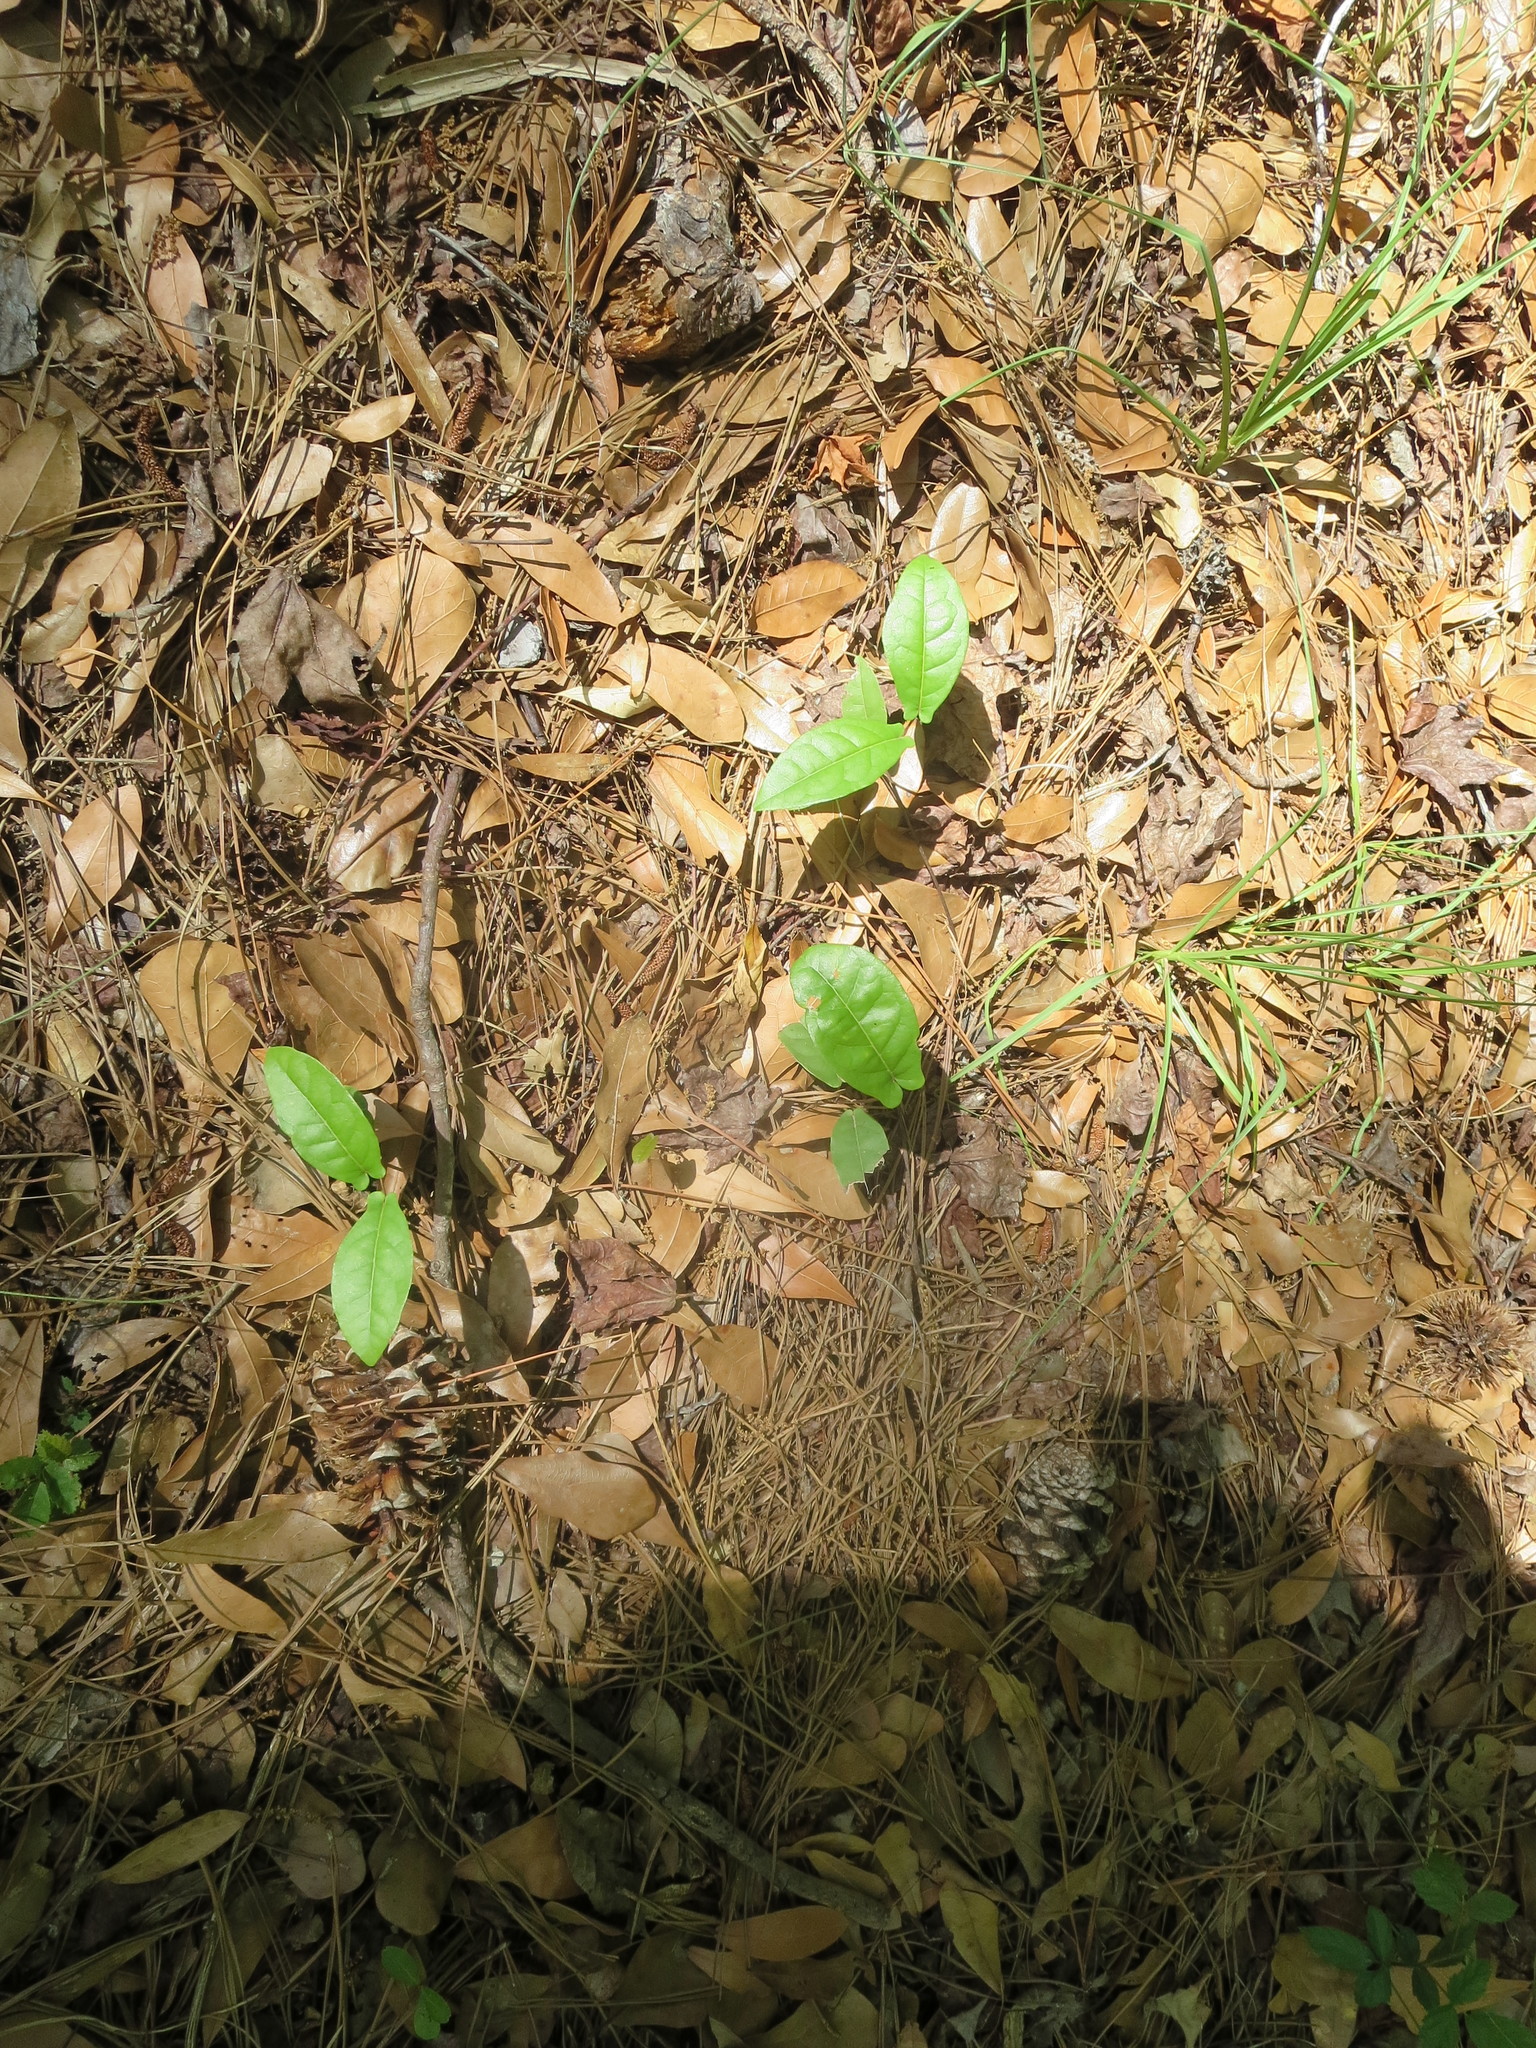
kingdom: Plantae
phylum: Tracheophyta
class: Magnoliopsida
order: Lamiales
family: Bignoniaceae
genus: Bignonia
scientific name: Bignonia capreolata
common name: Crossvine
